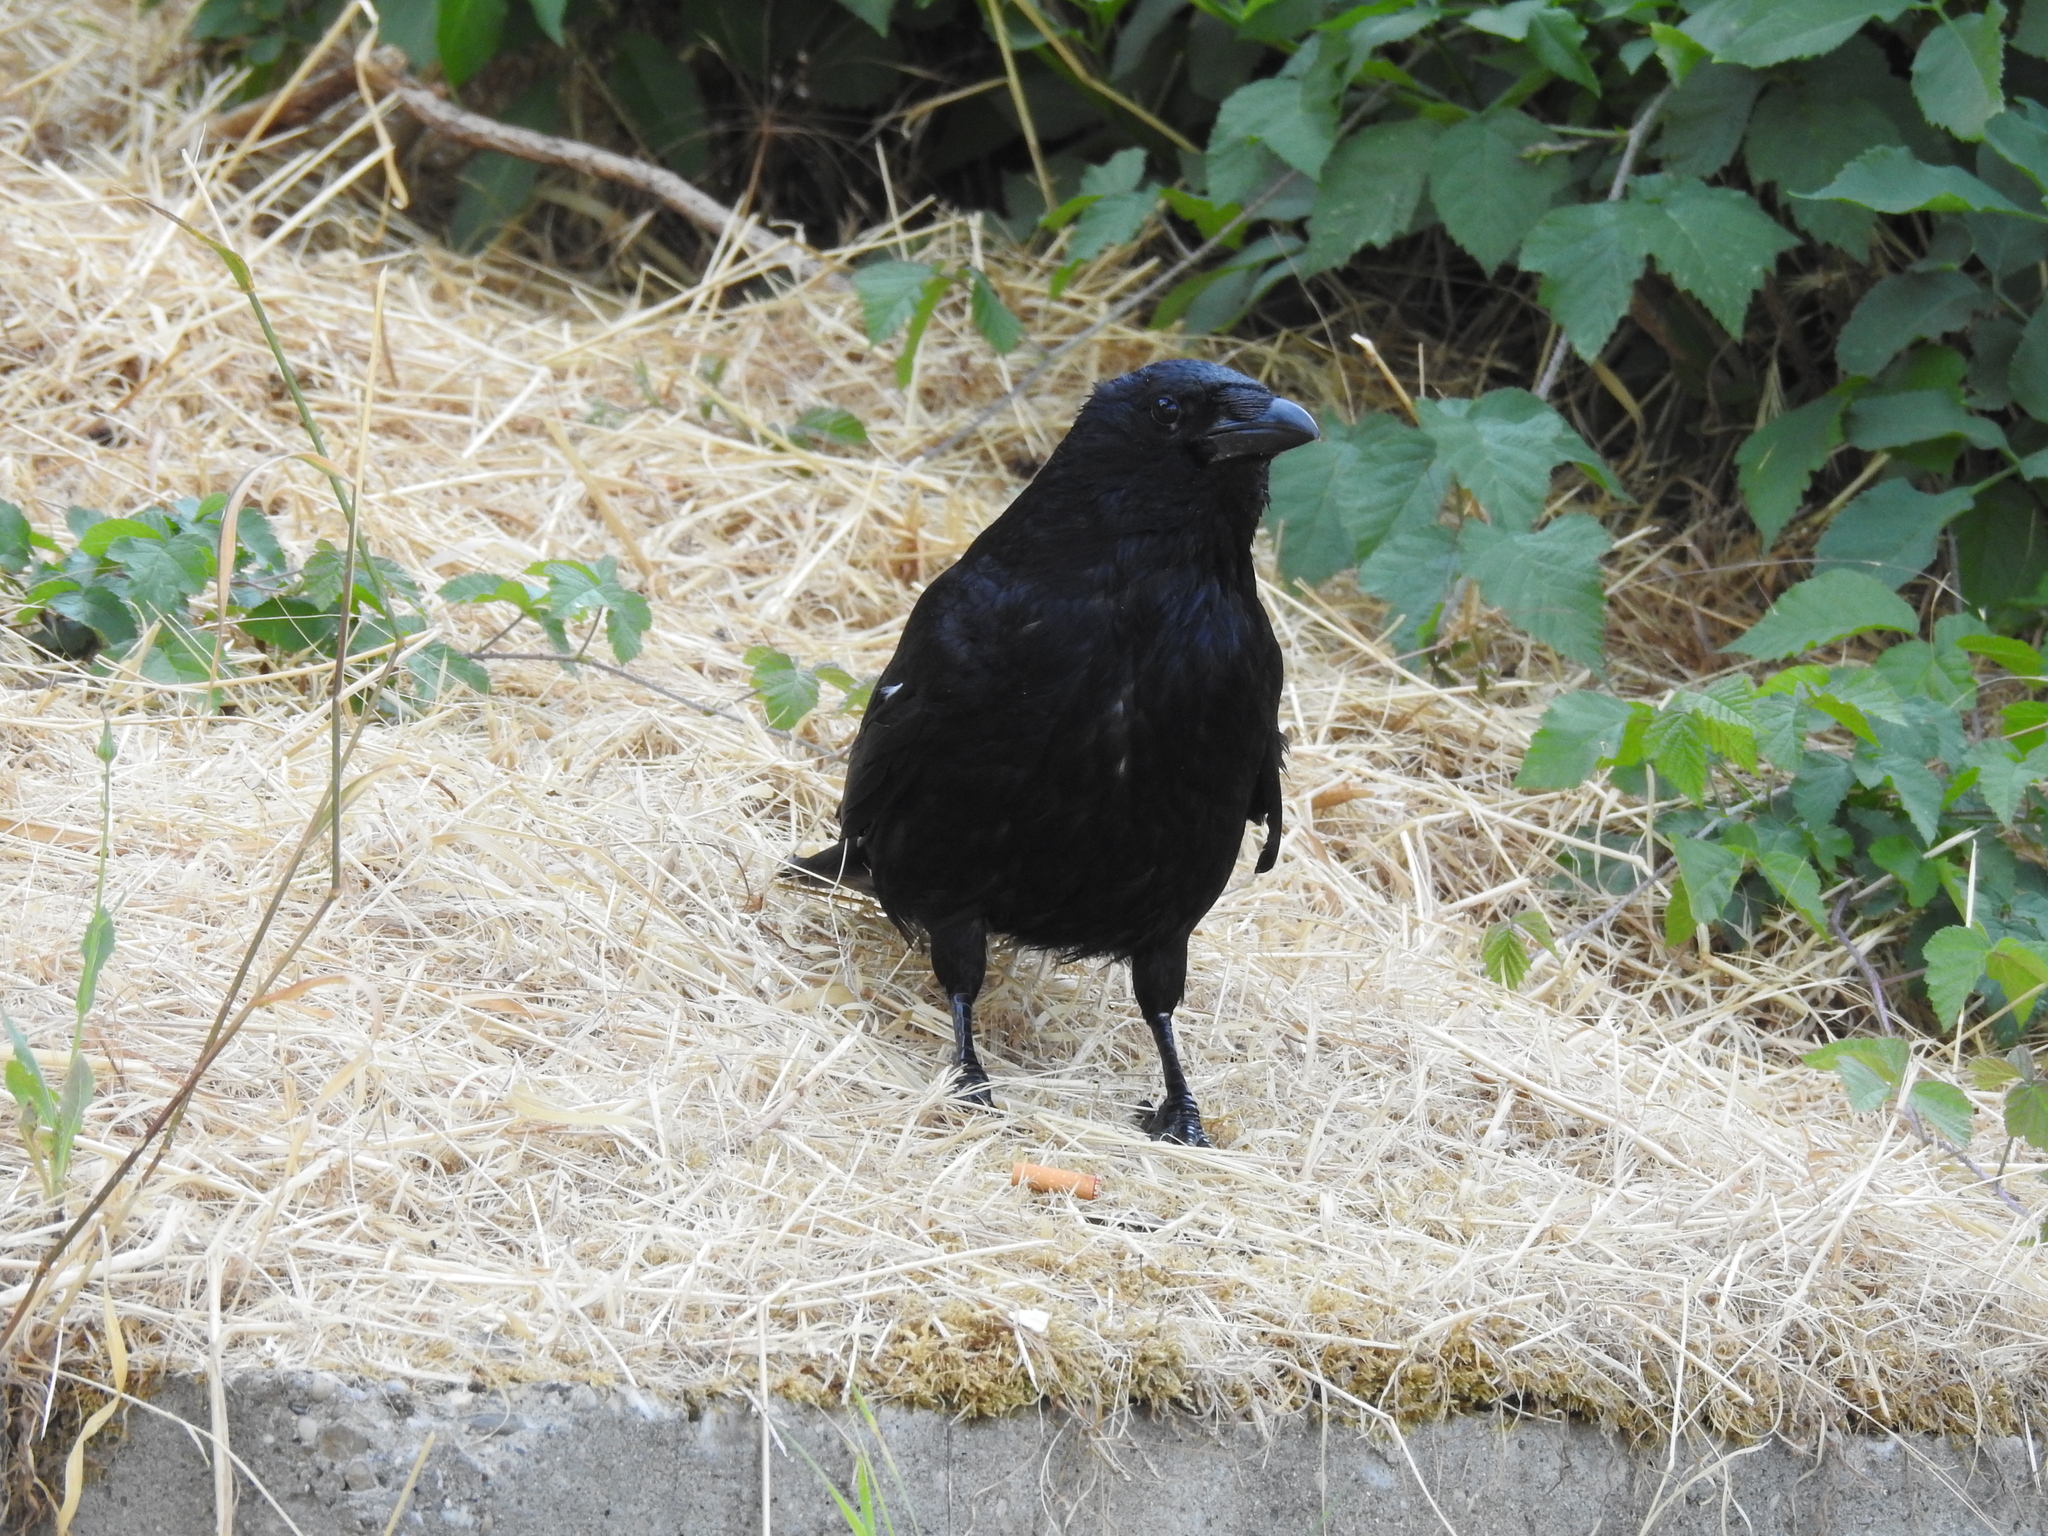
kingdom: Animalia
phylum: Chordata
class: Aves
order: Passeriformes
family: Corvidae
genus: Corvus
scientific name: Corvus corone
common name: Carrion crow
